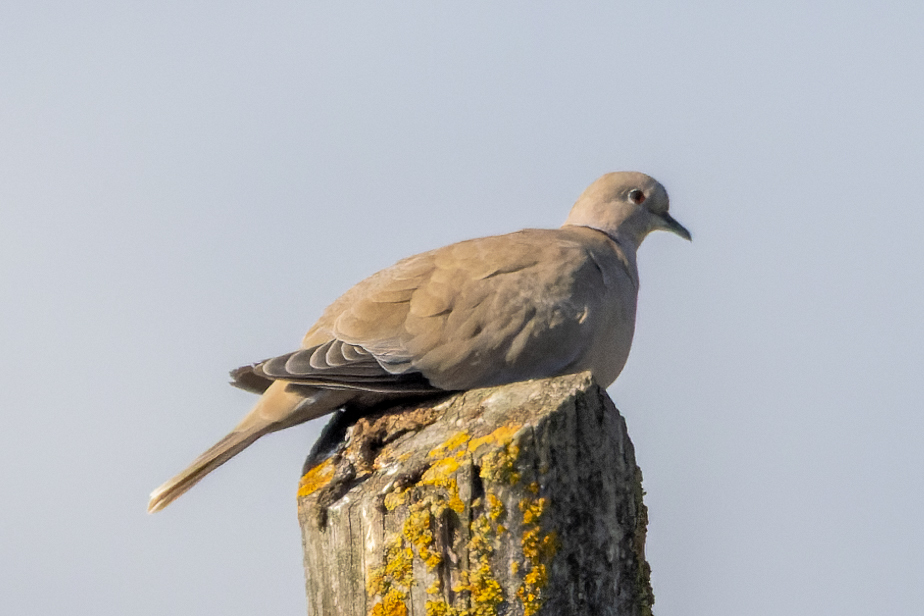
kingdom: Animalia
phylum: Chordata
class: Aves
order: Columbiformes
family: Columbidae
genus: Streptopelia
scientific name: Streptopelia decaocto
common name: Eurasian collared dove
